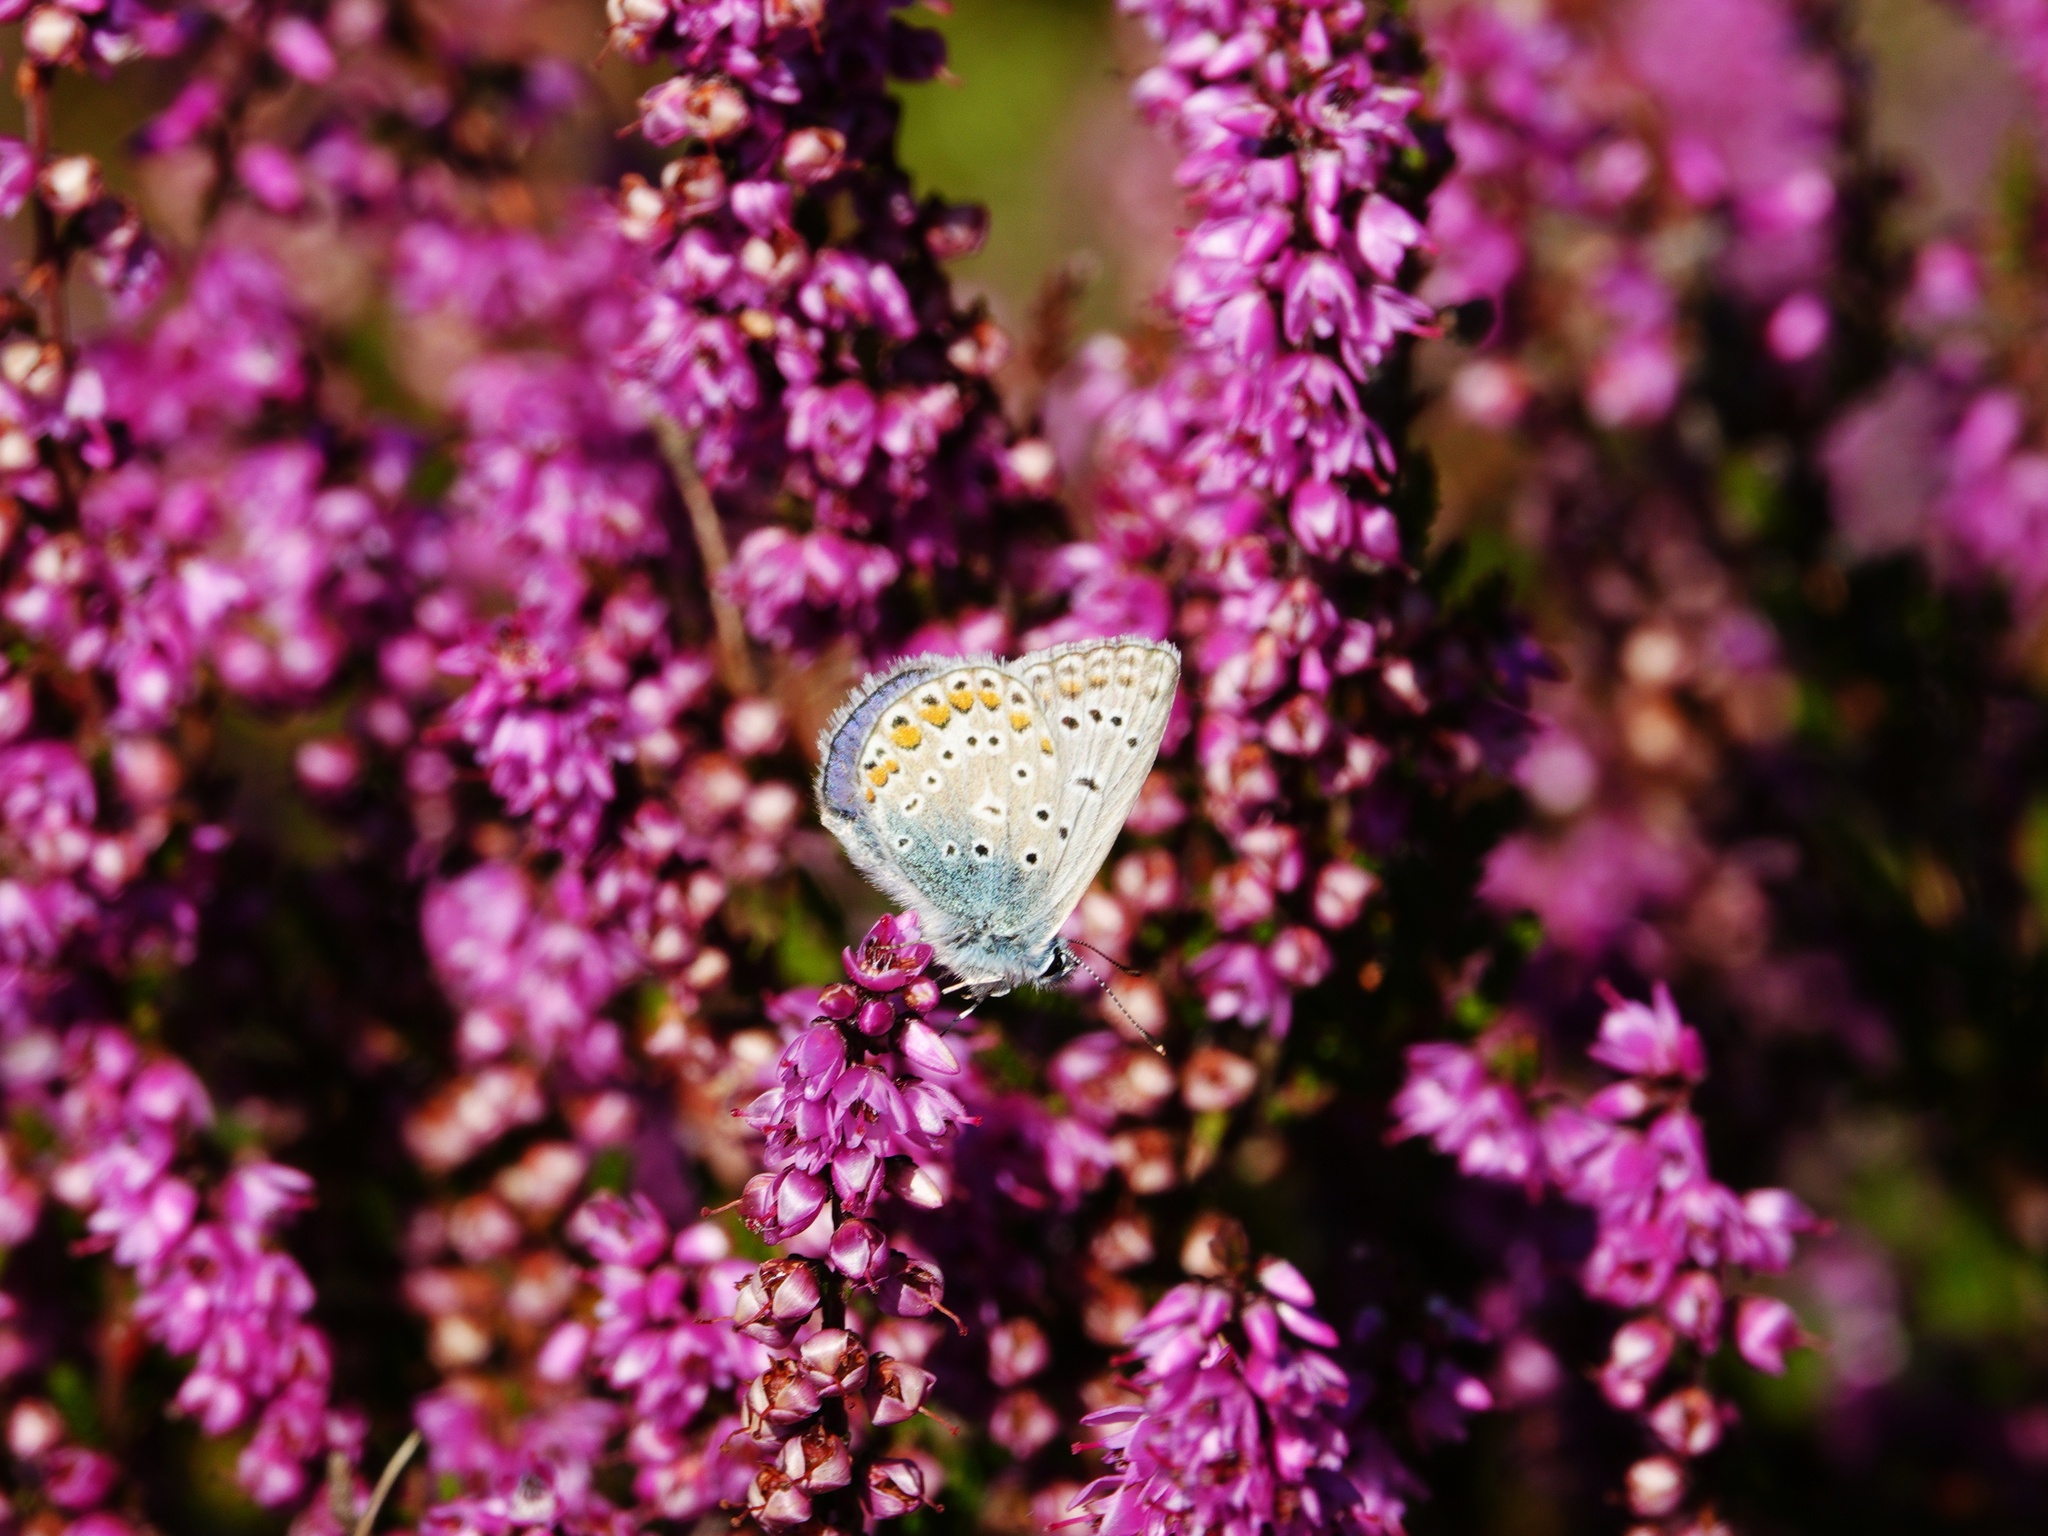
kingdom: Animalia
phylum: Arthropoda
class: Insecta
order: Lepidoptera
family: Lycaenidae
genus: Polyommatus
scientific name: Polyommatus icarus
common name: Common blue
